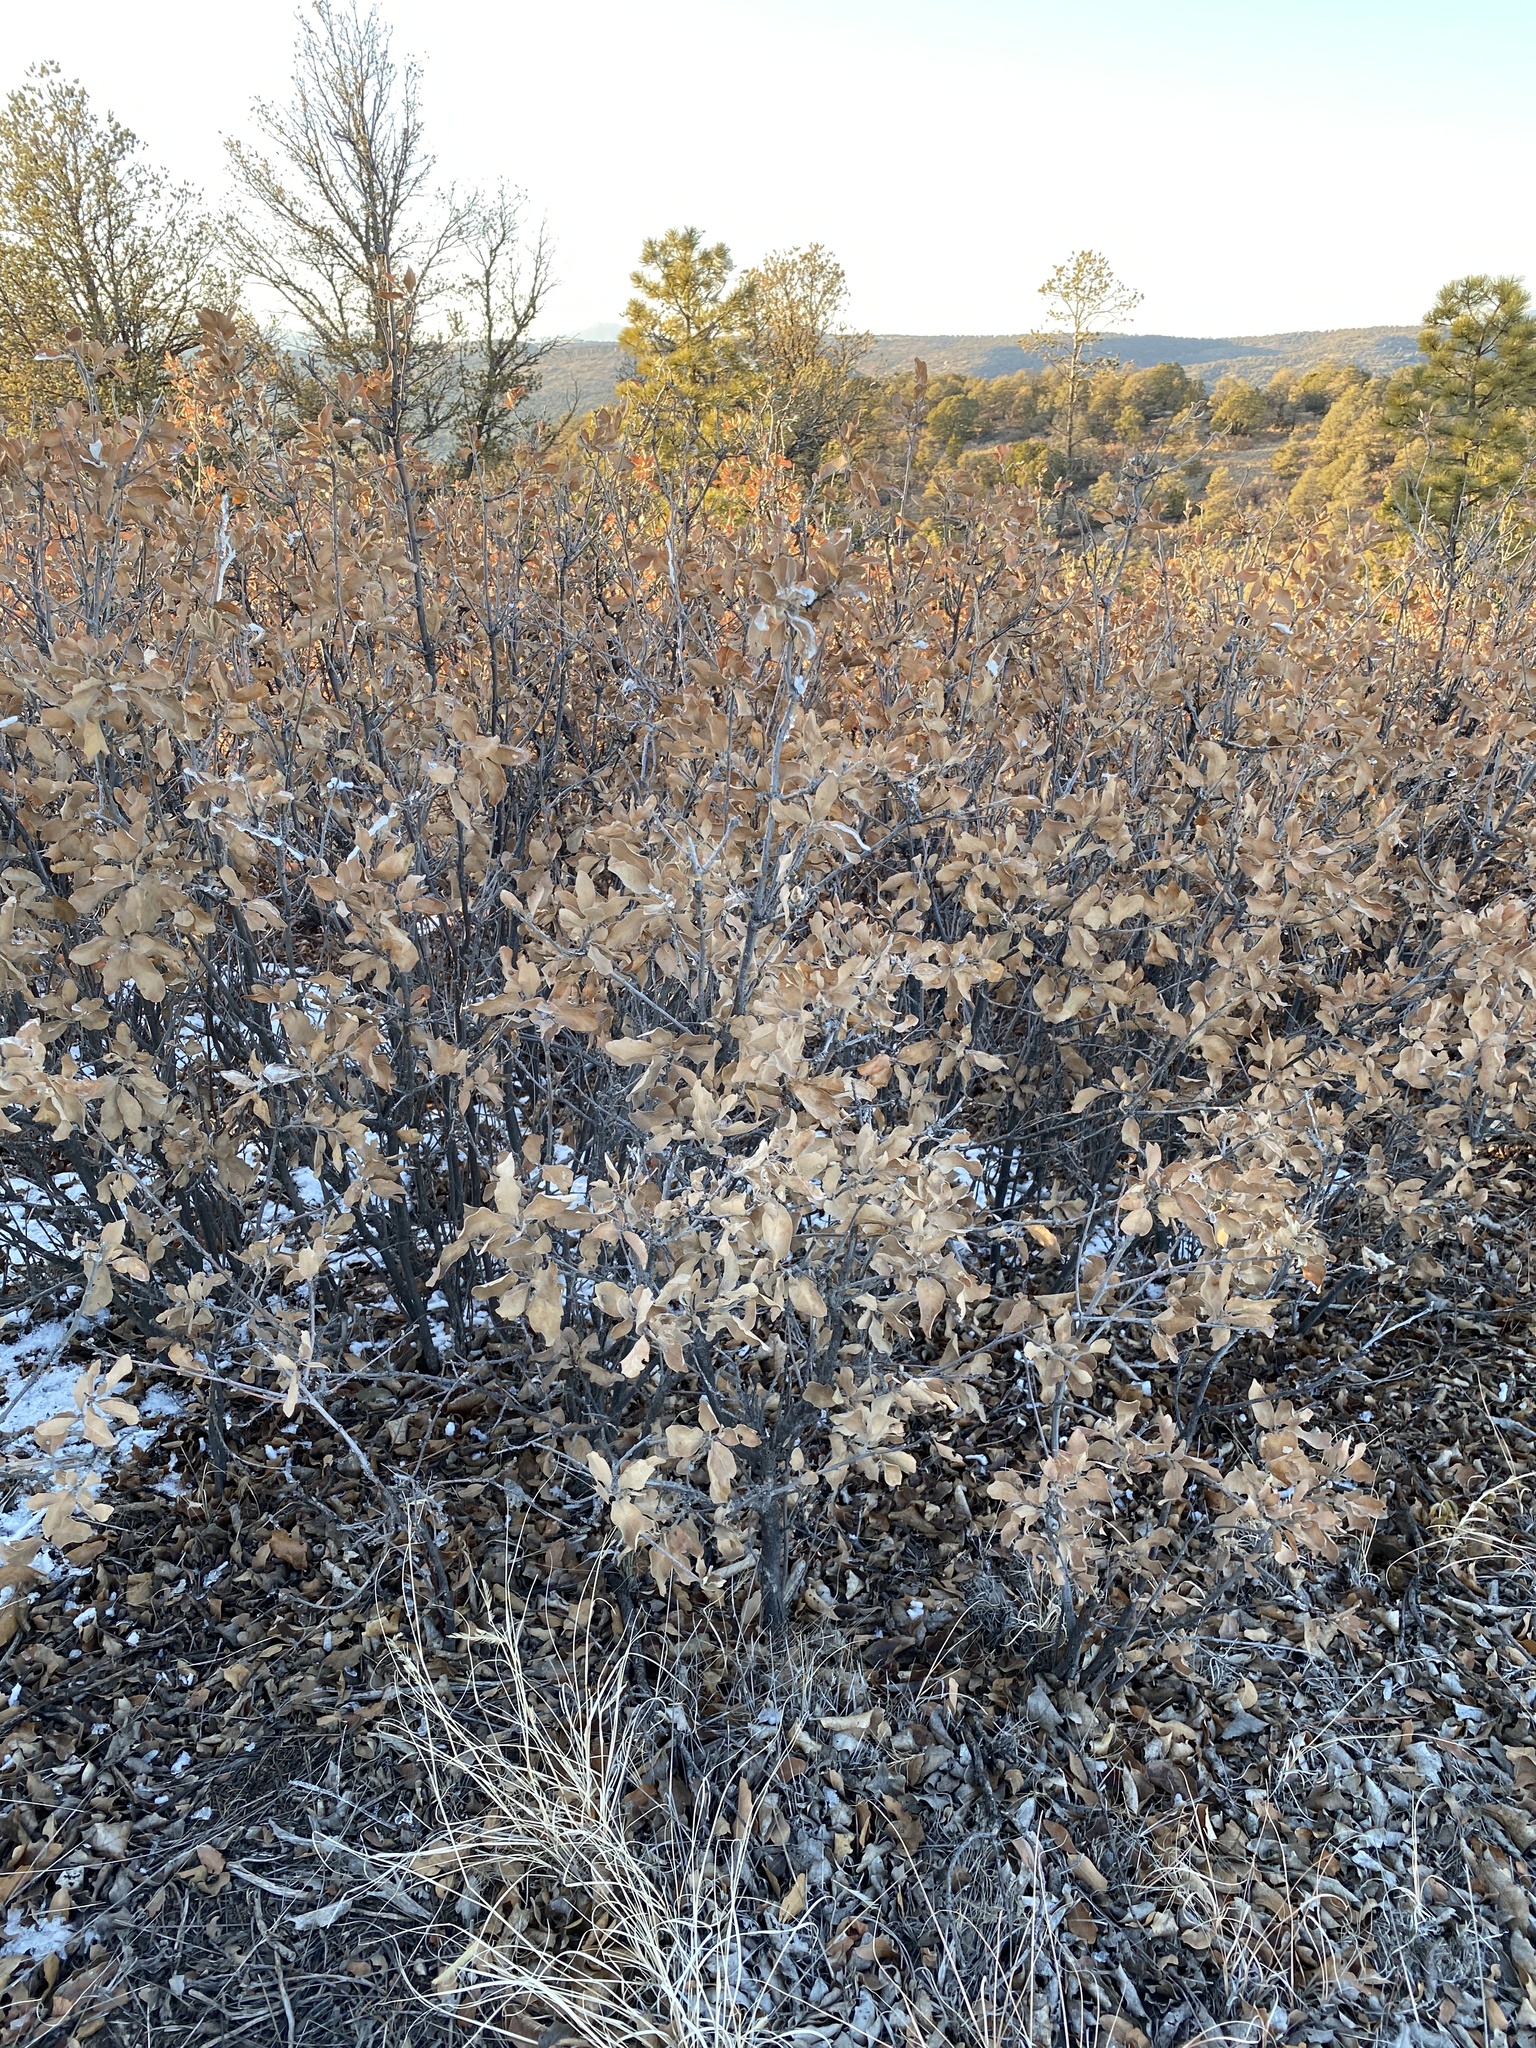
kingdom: Plantae
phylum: Tracheophyta
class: Magnoliopsida
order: Fagales
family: Fagaceae
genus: Quercus
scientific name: Quercus undulata
